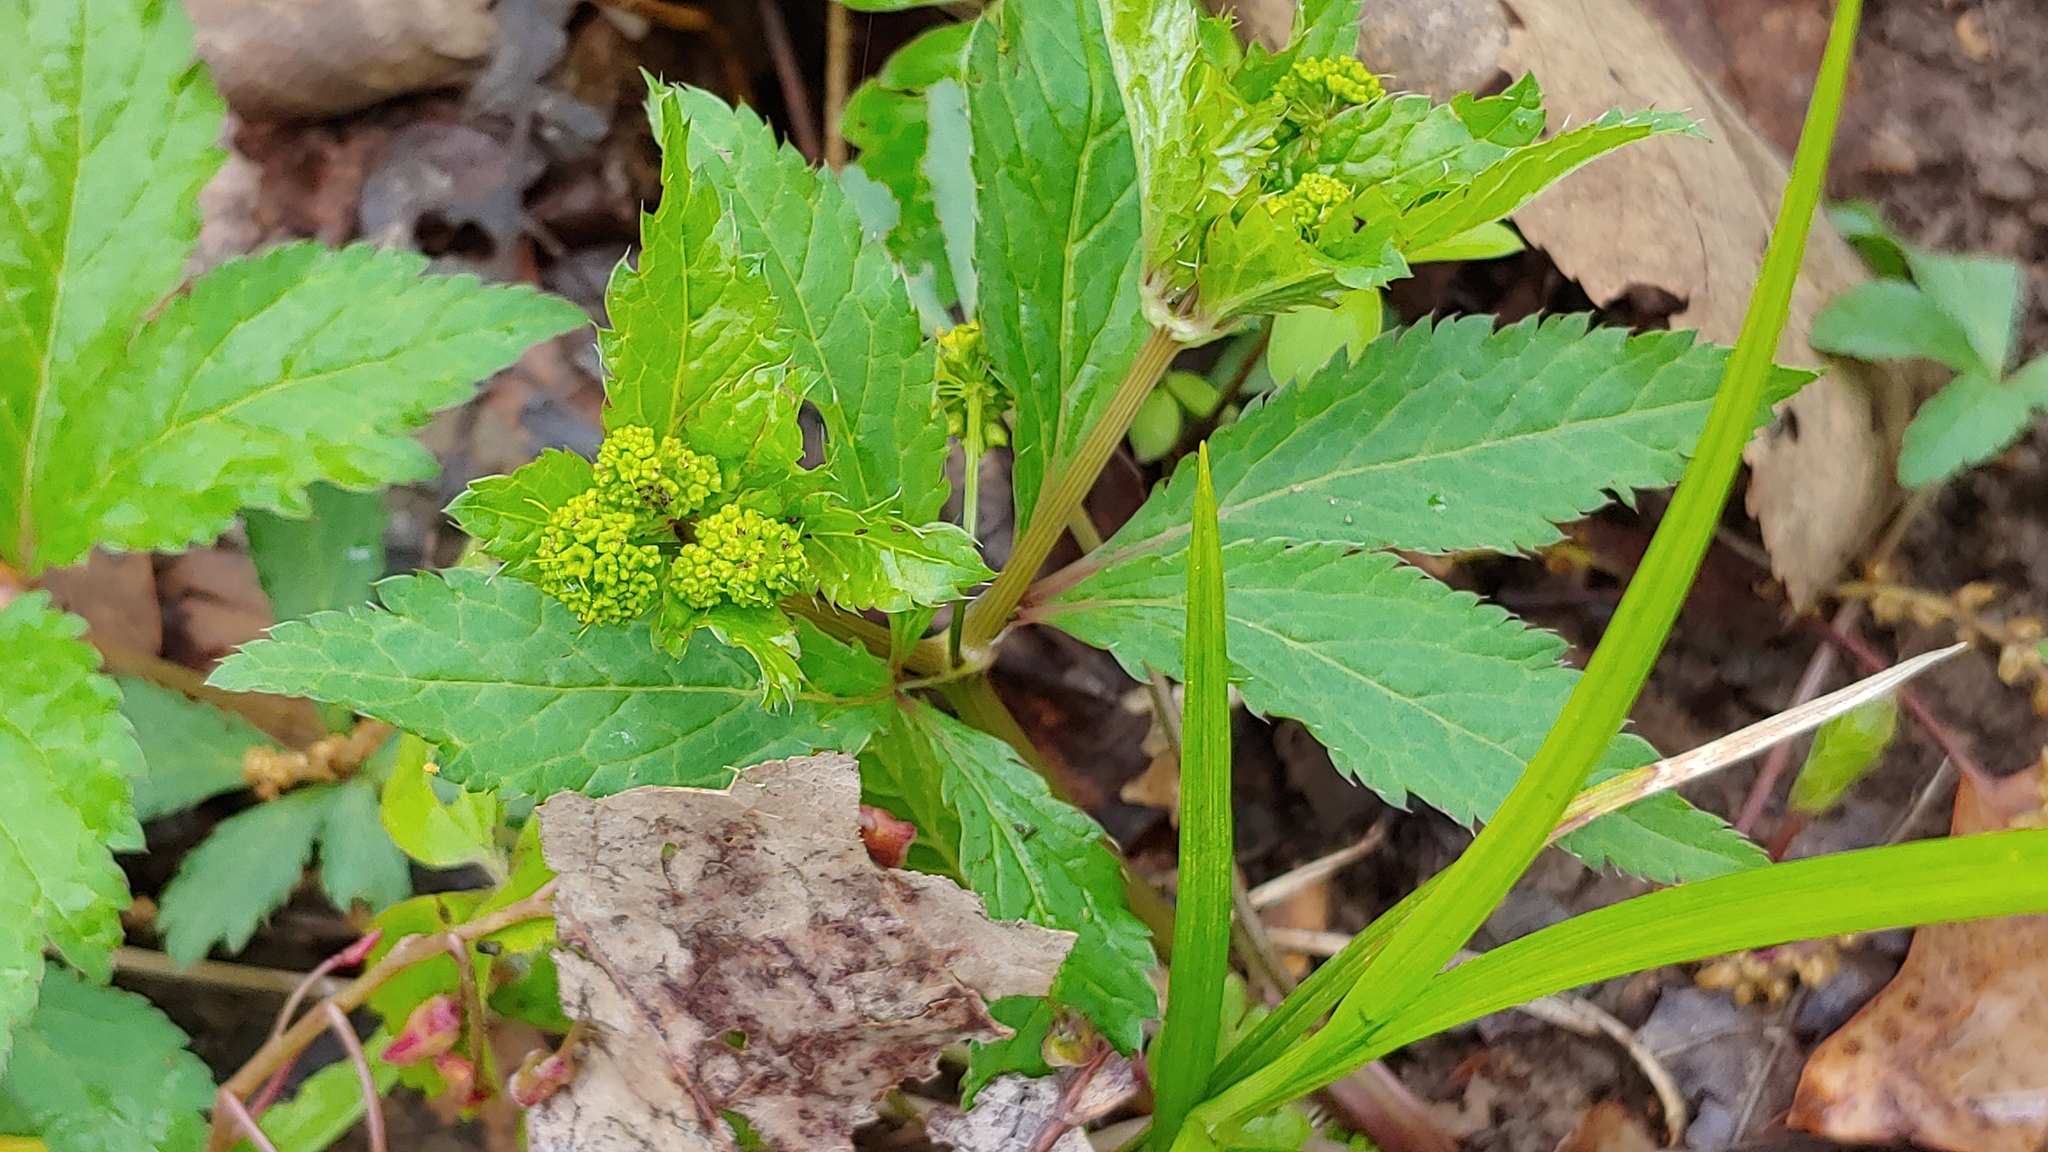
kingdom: Plantae
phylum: Tracheophyta
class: Magnoliopsida
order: Apiales
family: Apiaceae
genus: Sanicula
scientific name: Sanicula odorata
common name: Cluster sanicle
